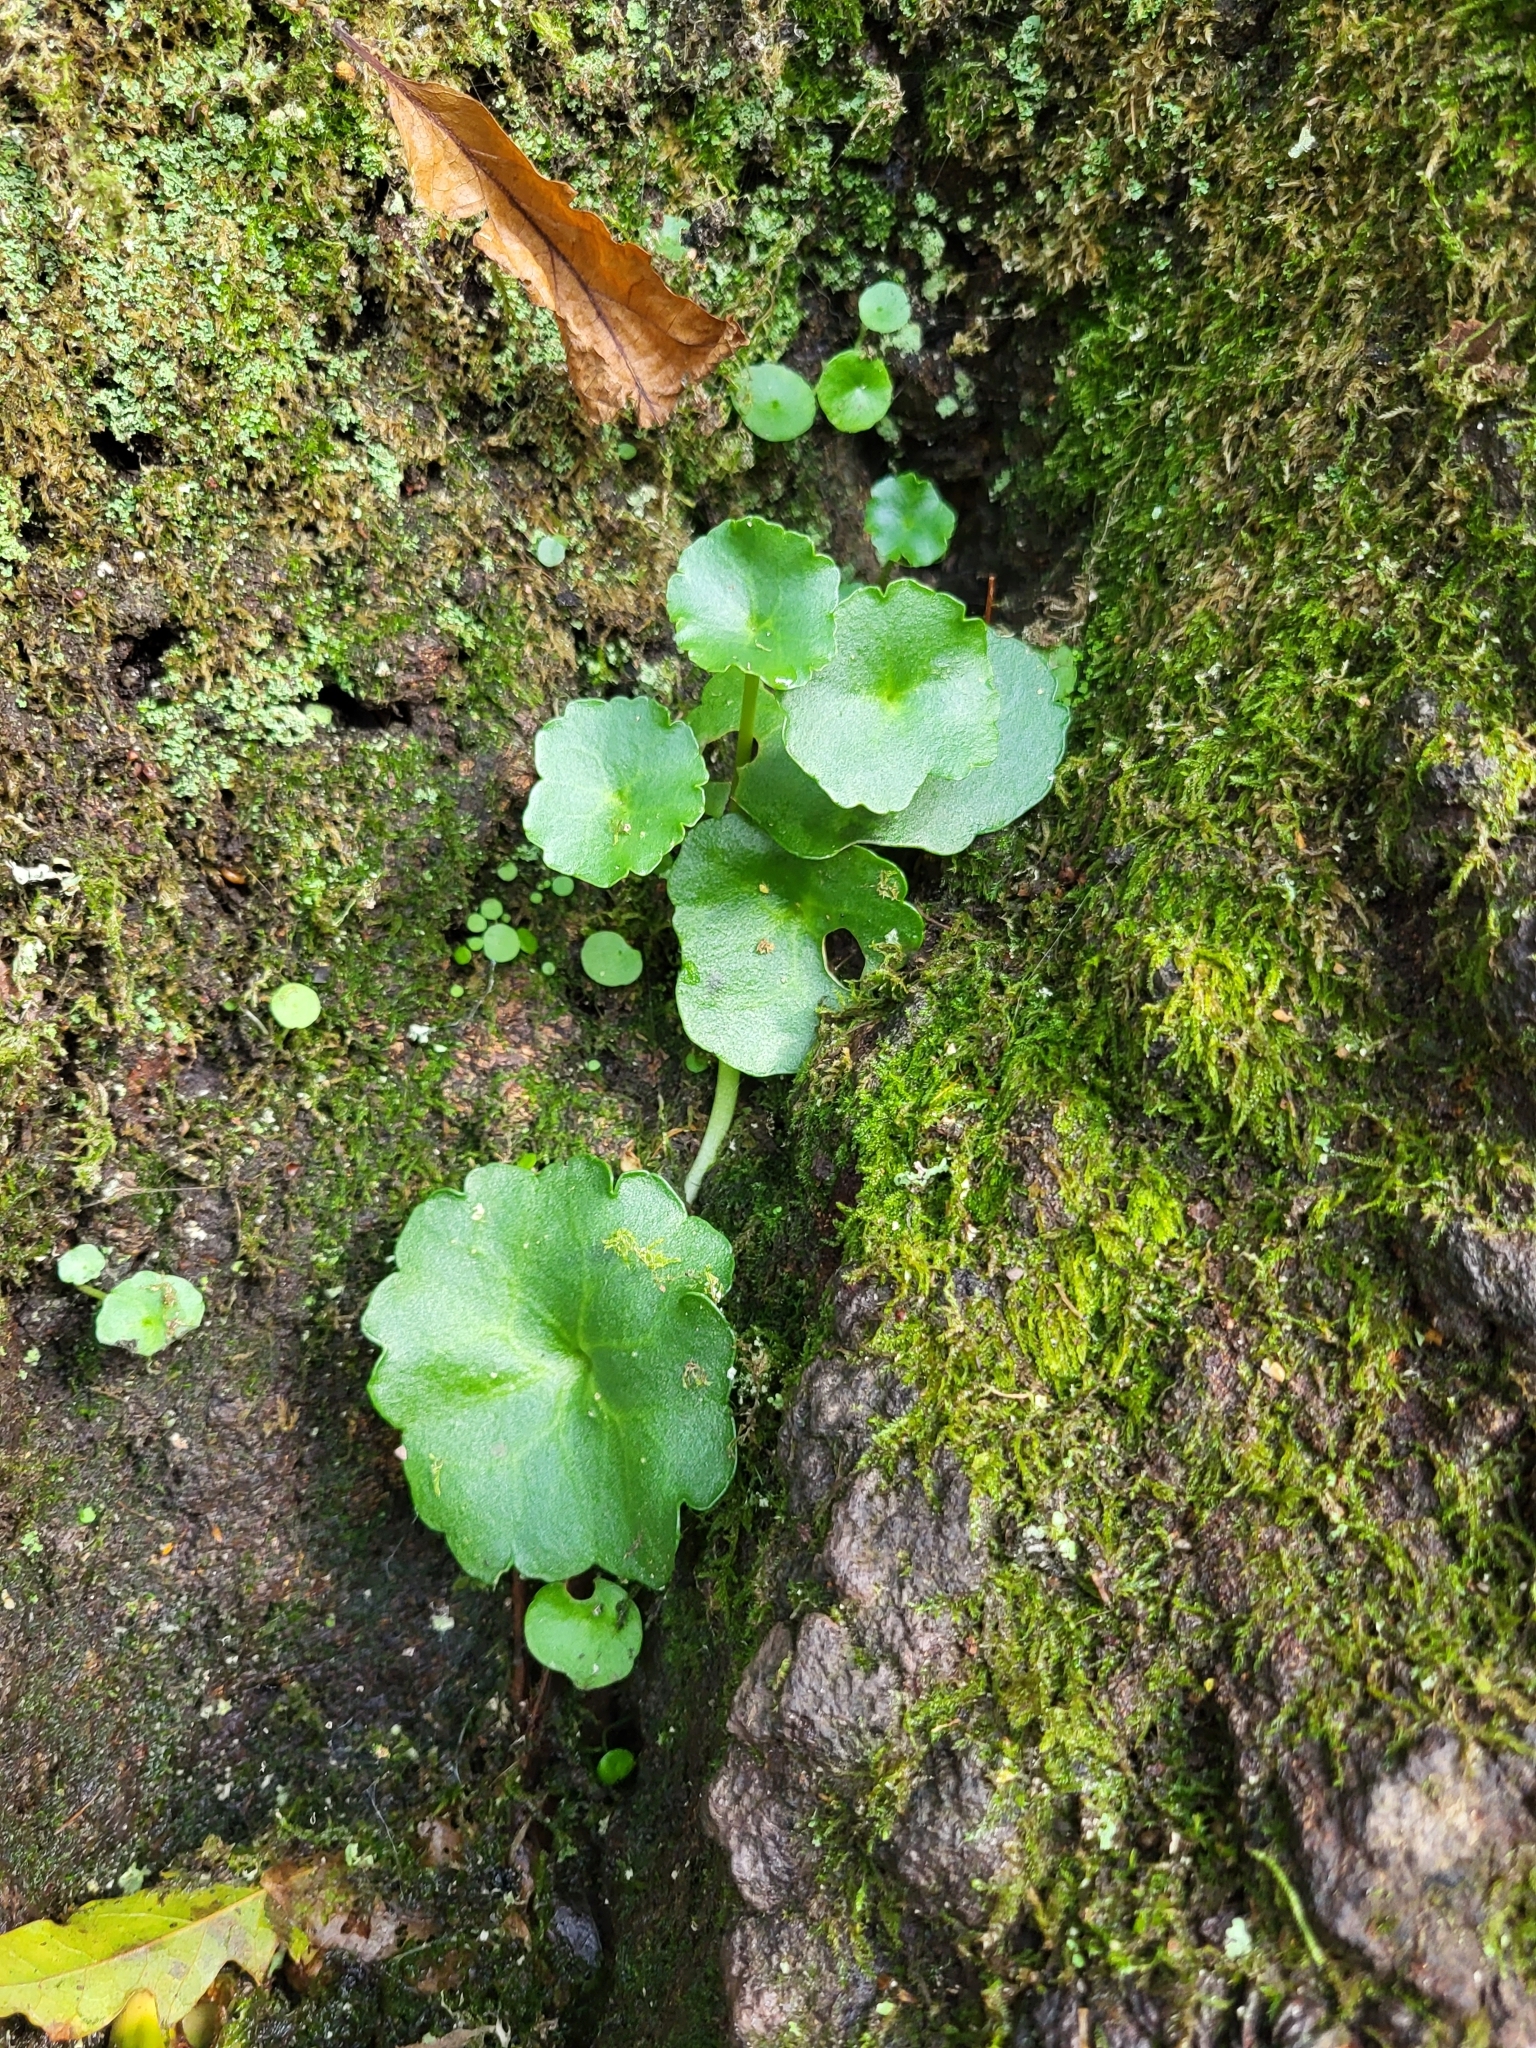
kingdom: Plantae
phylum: Tracheophyta
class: Magnoliopsida
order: Saxifragales
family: Crassulaceae
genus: Umbilicus
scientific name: Umbilicus rupestris
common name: Navelwort
